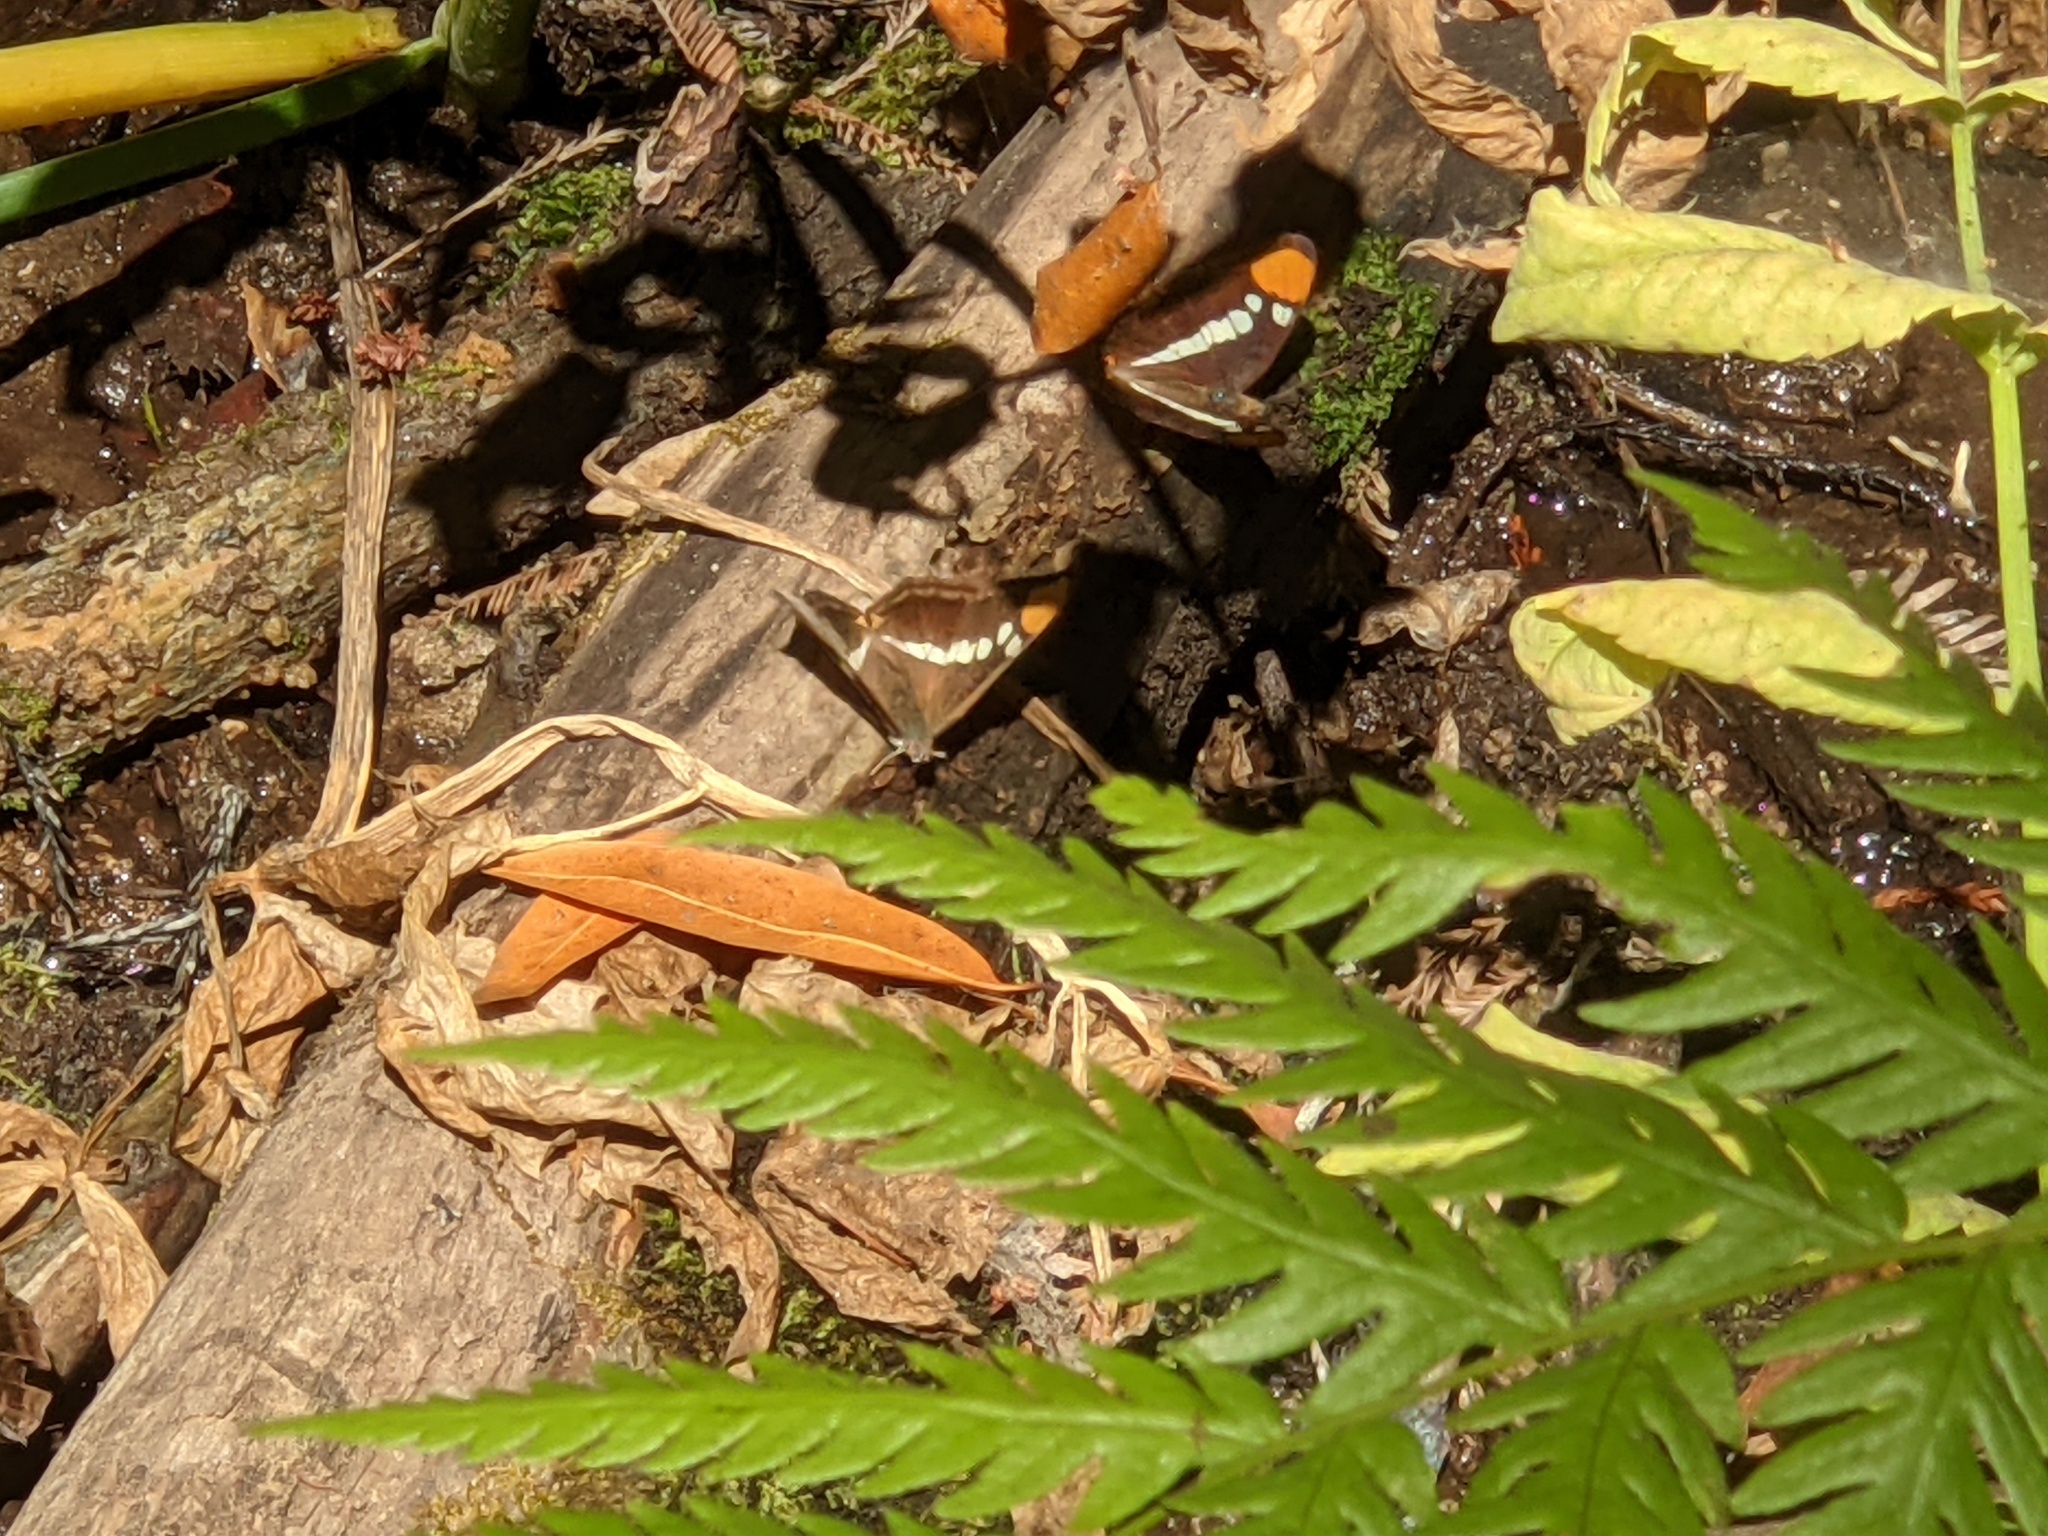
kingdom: Animalia
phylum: Arthropoda
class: Insecta
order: Lepidoptera
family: Nymphalidae
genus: Limenitis
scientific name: Limenitis bredowii
